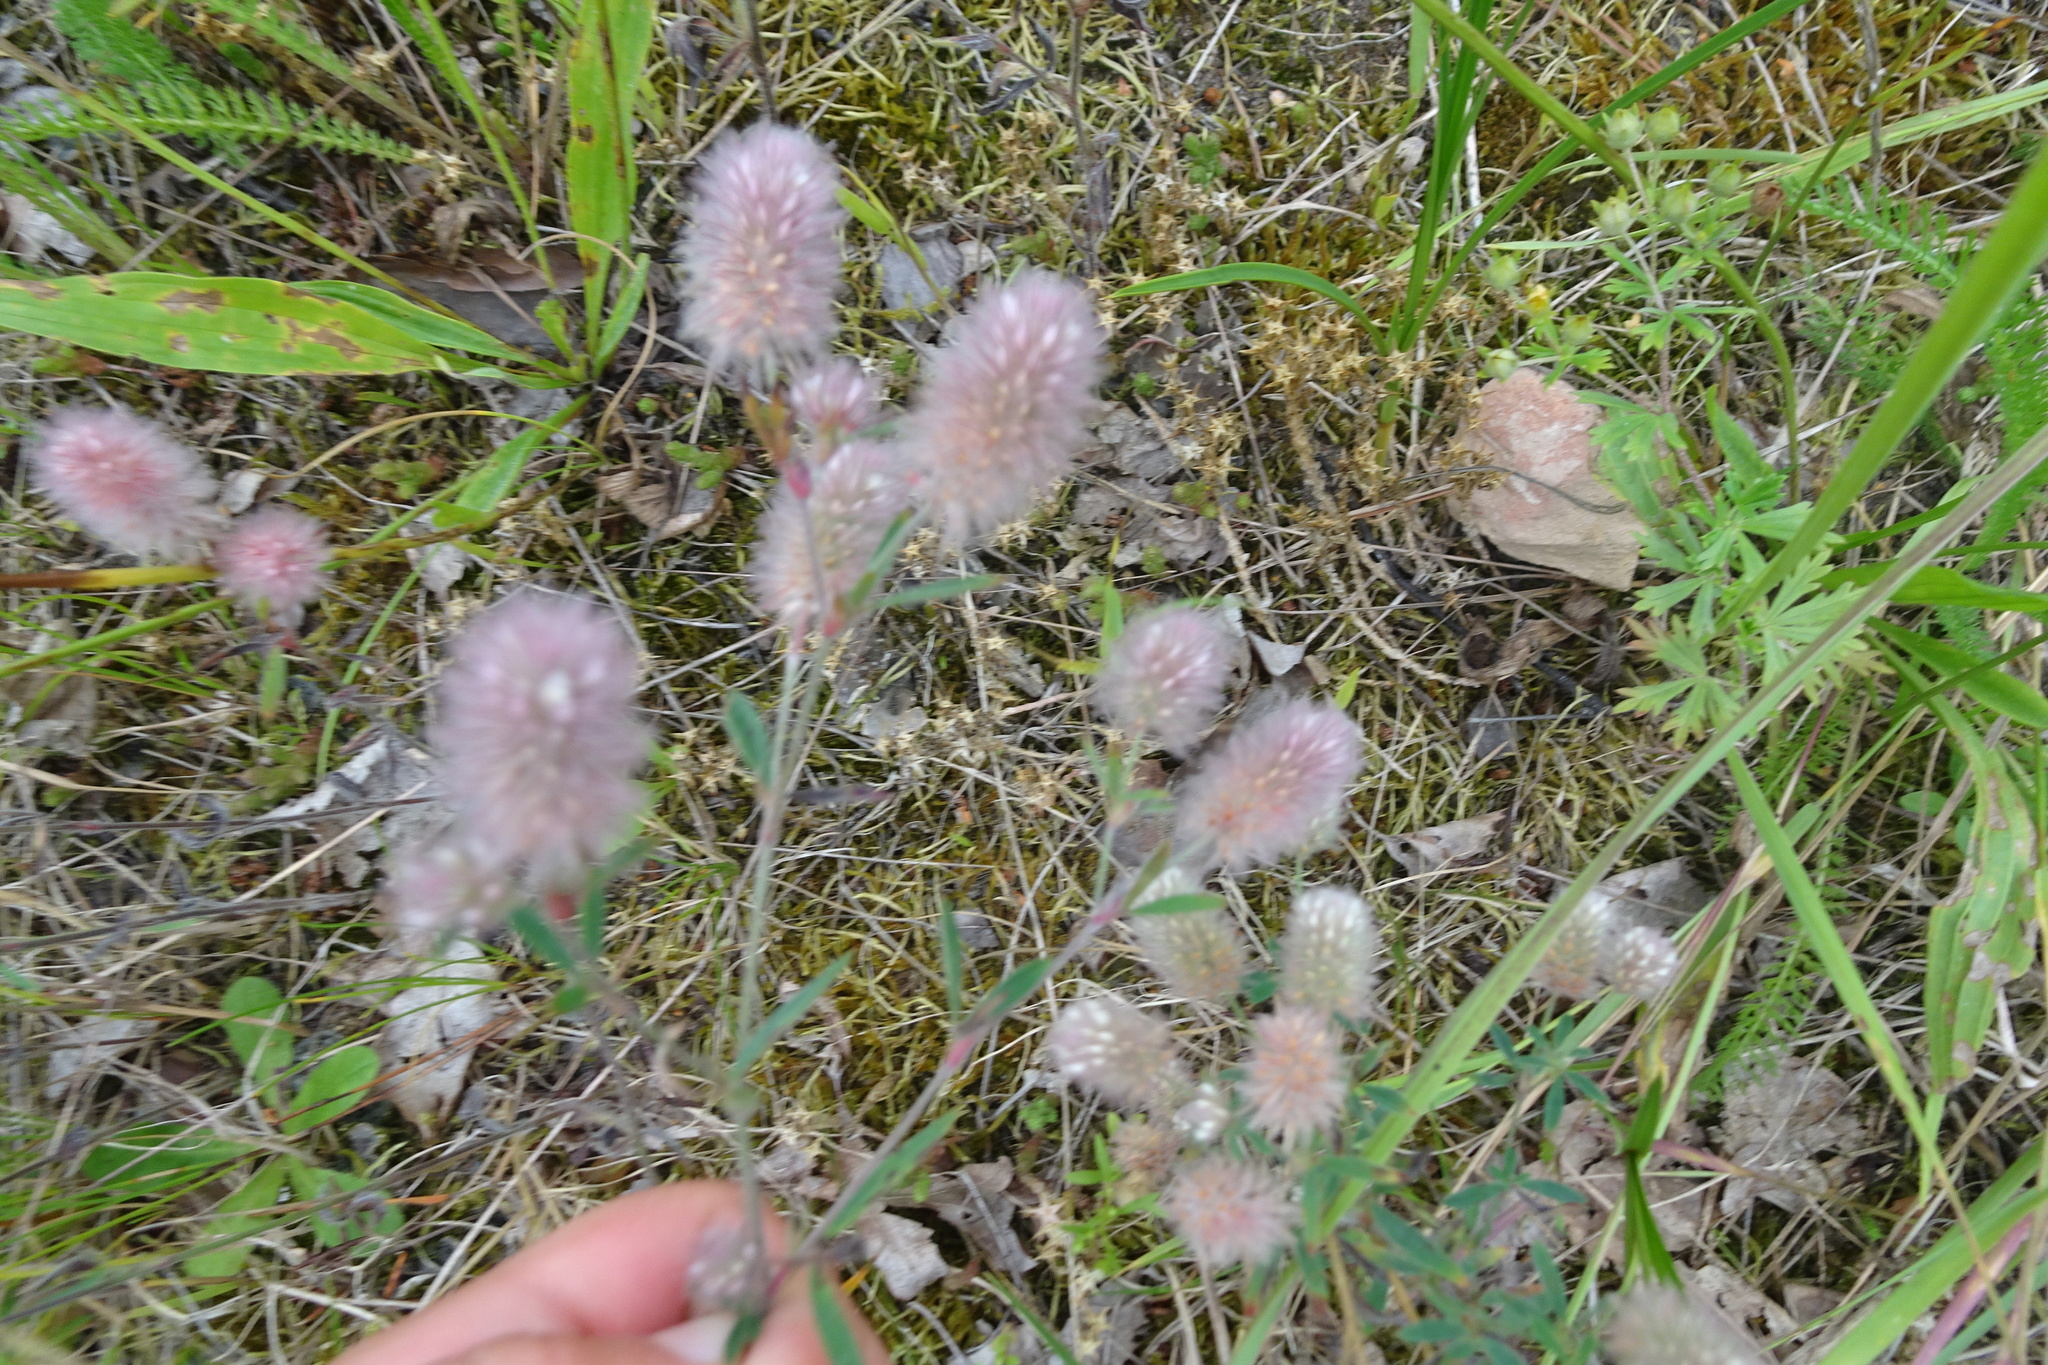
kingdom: Plantae
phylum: Tracheophyta
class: Magnoliopsida
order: Fabales
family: Fabaceae
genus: Trifolium
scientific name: Trifolium arvense
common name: Hare's-foot clover
